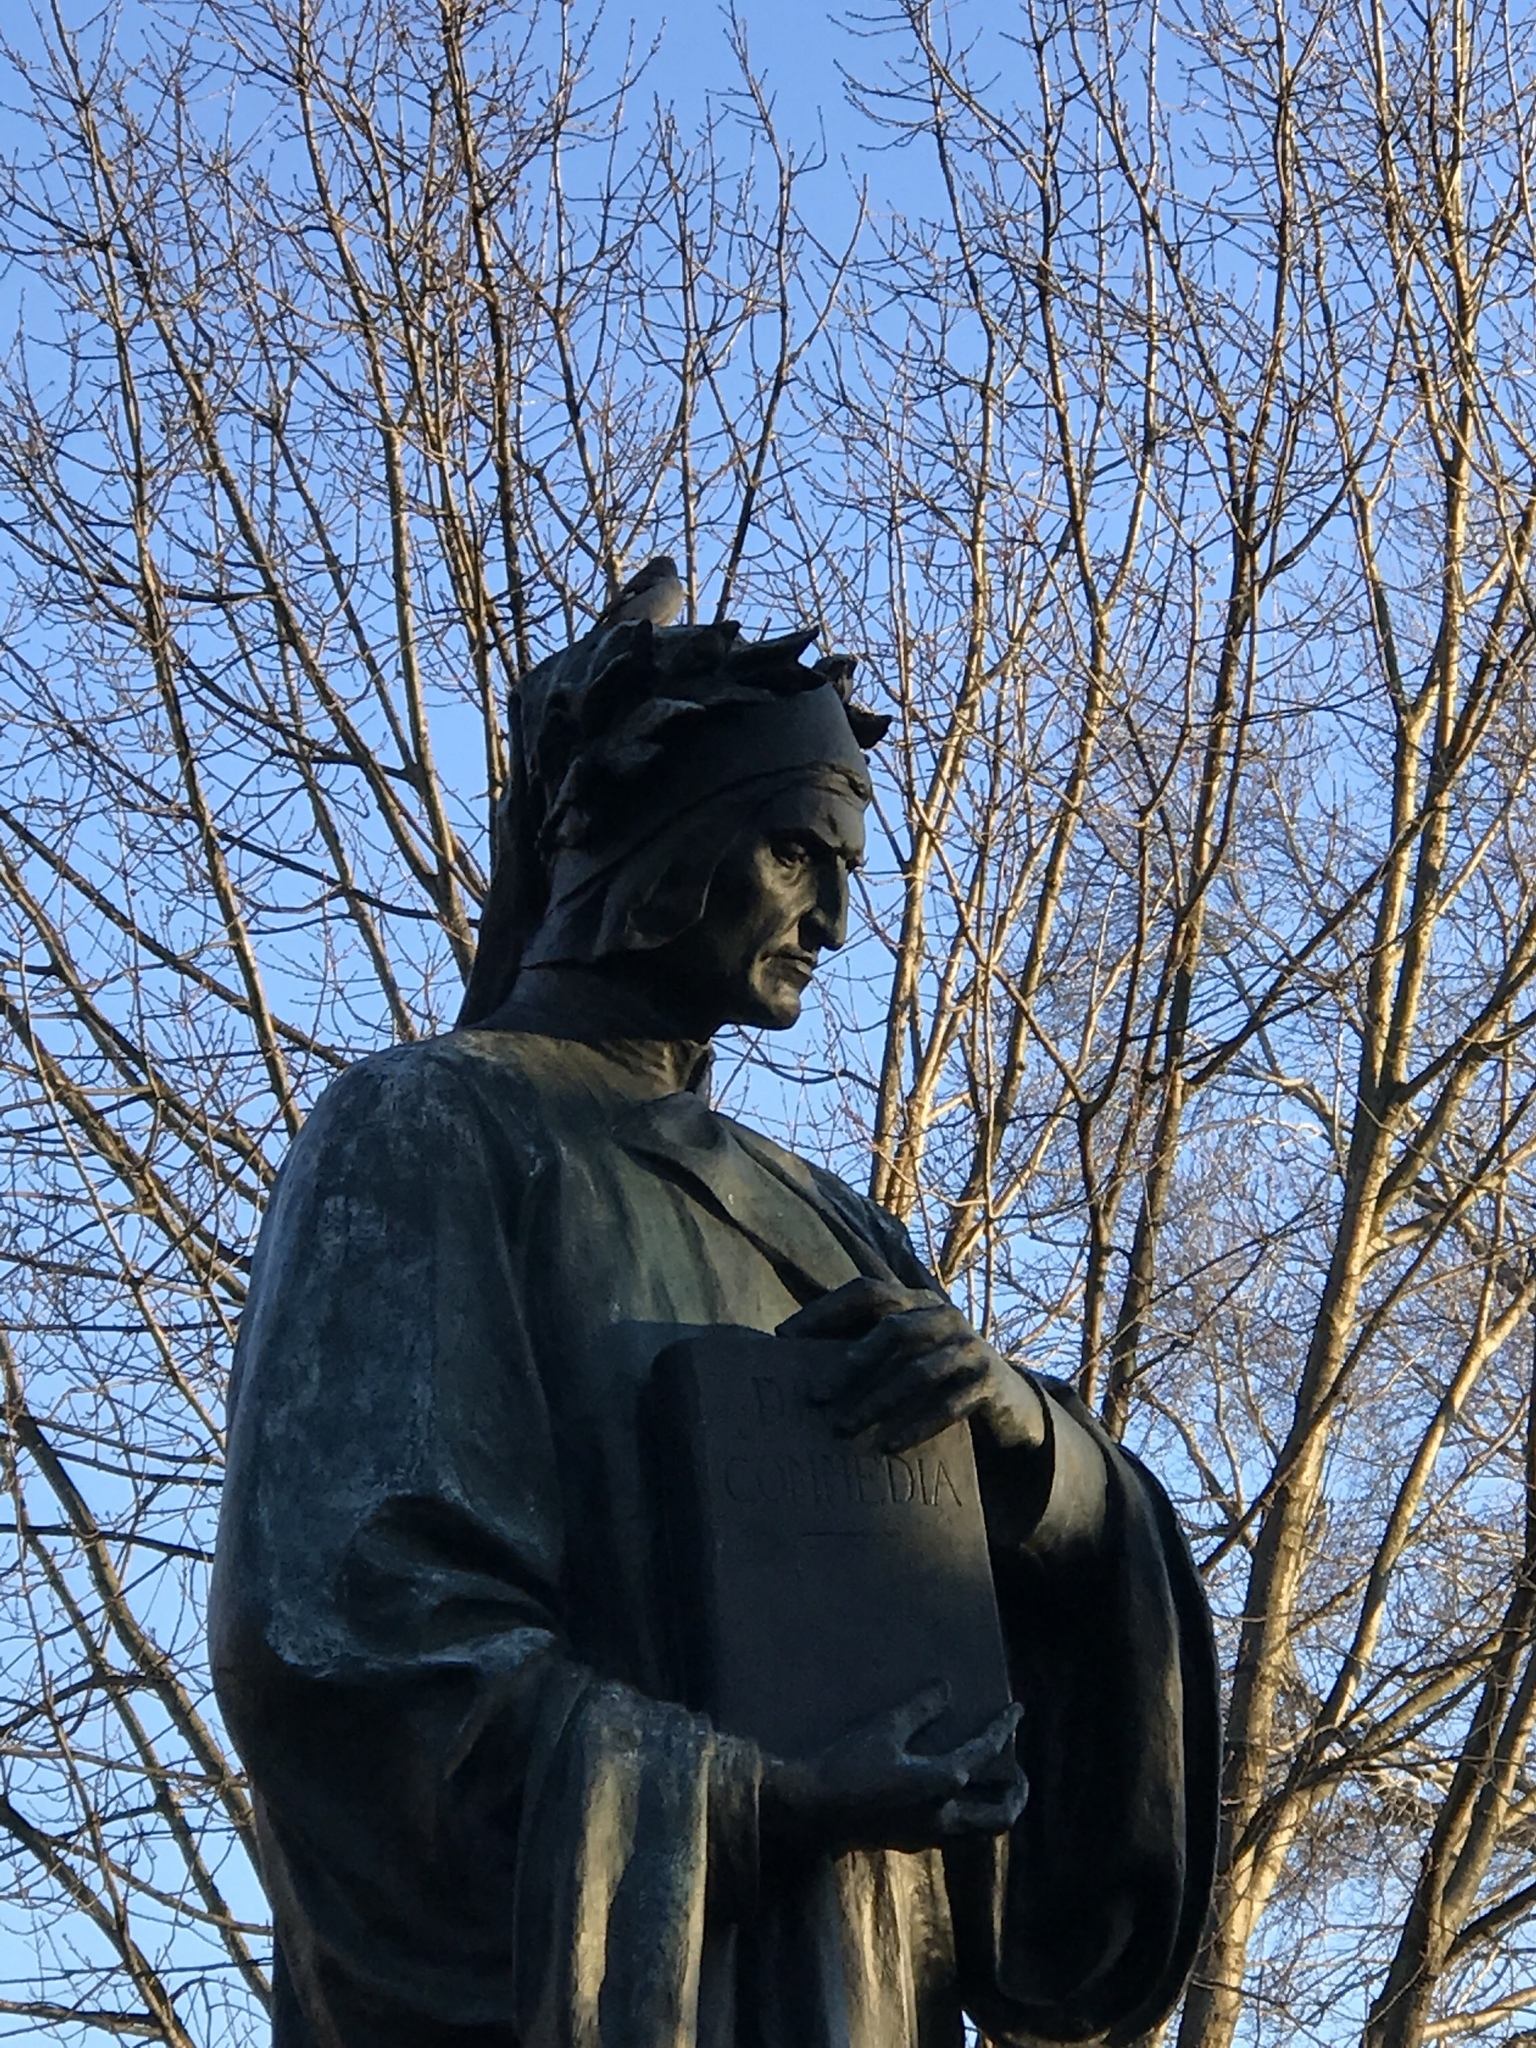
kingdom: Animalia
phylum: Chordata
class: Aves
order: Passeriformes
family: Mimidae
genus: Mimus
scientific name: Mimus polyglottos
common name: Northern mockingbird
